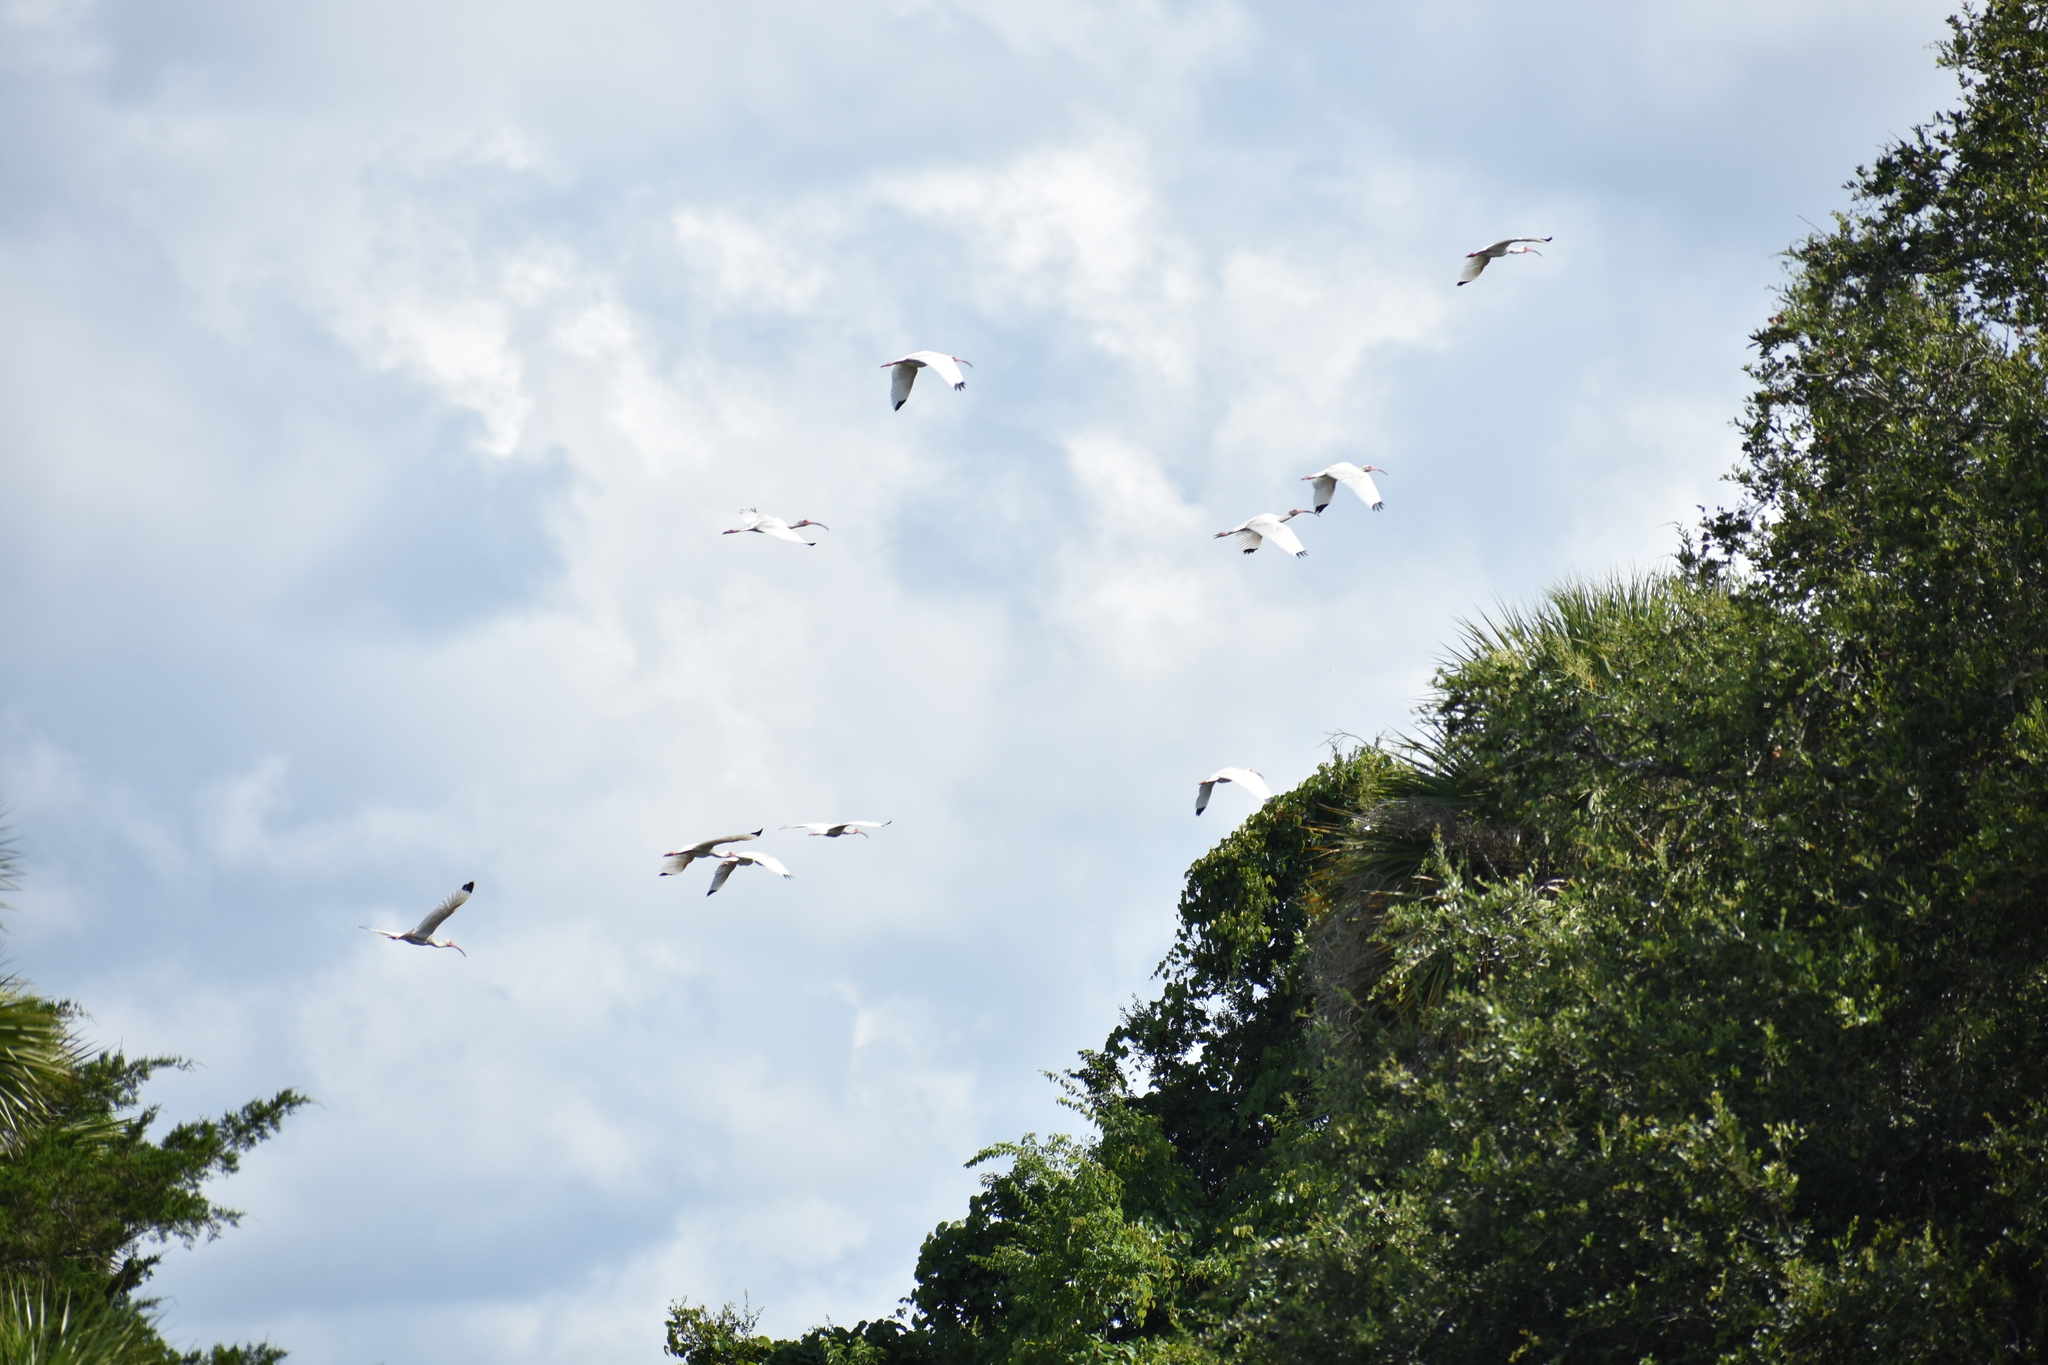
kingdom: Animalia
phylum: Chordata
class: Aves
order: Pelecaniformes
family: Threskiornithidae
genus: Eudocimus
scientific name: Eudocimus albus
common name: White ibis
